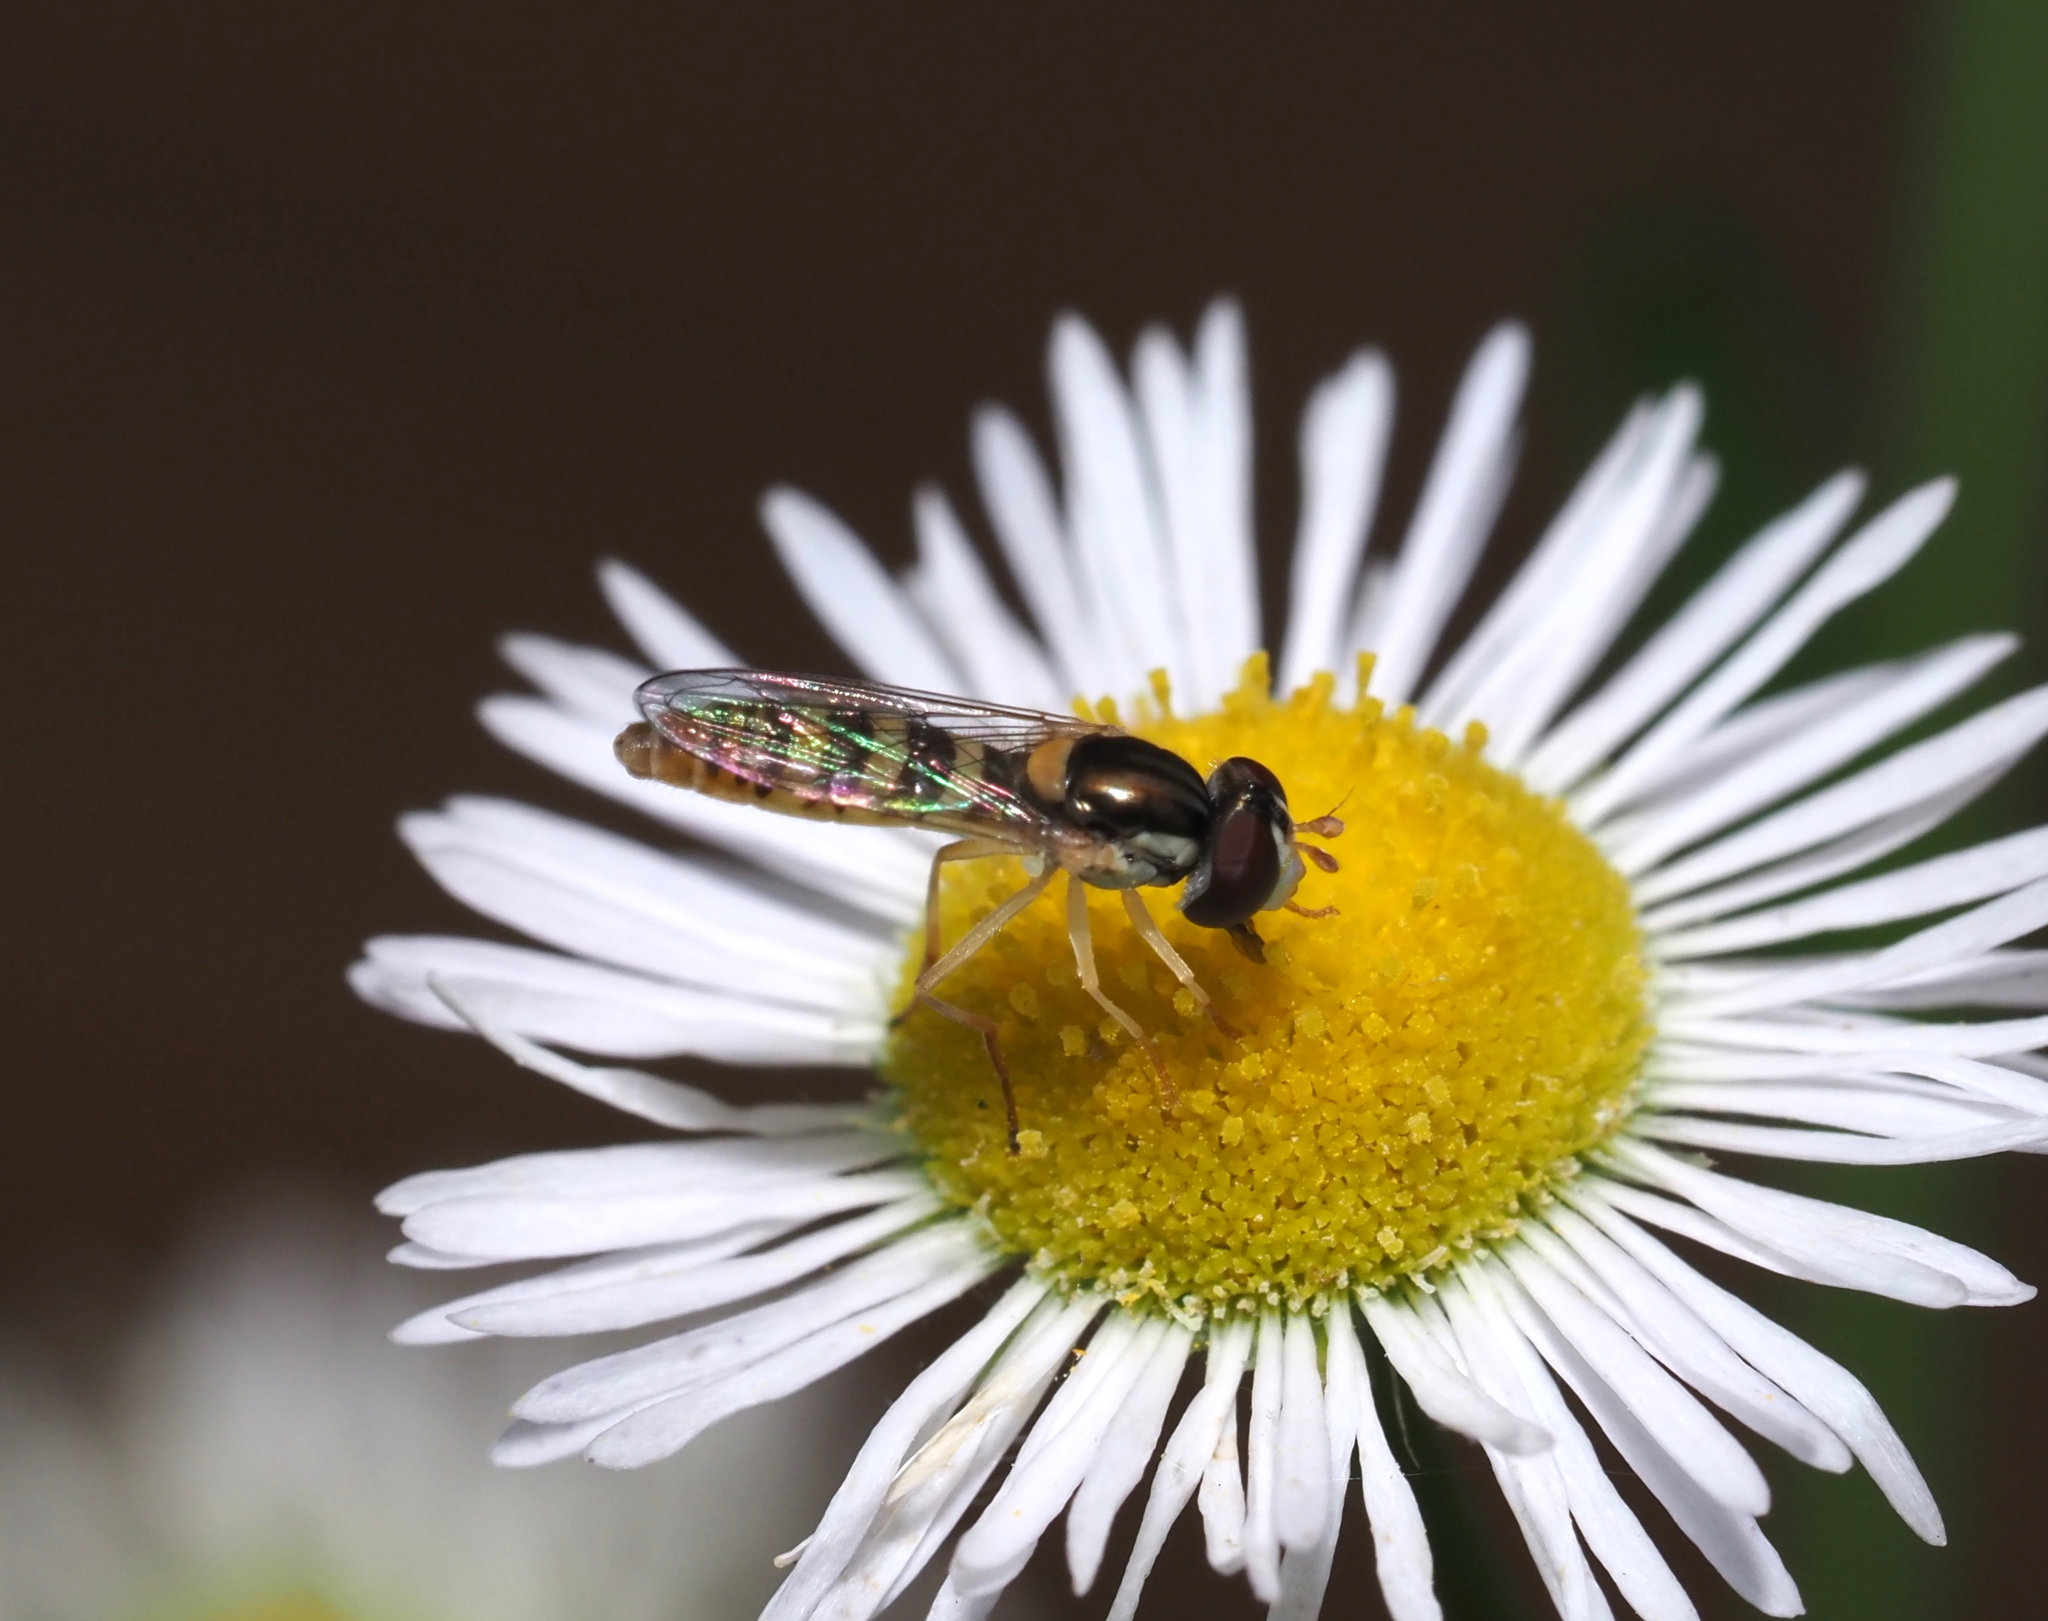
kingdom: Animalia
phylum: Arthropoda
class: Insecta
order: Diptera
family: Syrphidae
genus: Sphaerophoria
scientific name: Sphaerophoria contigua
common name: Tufted globetail
